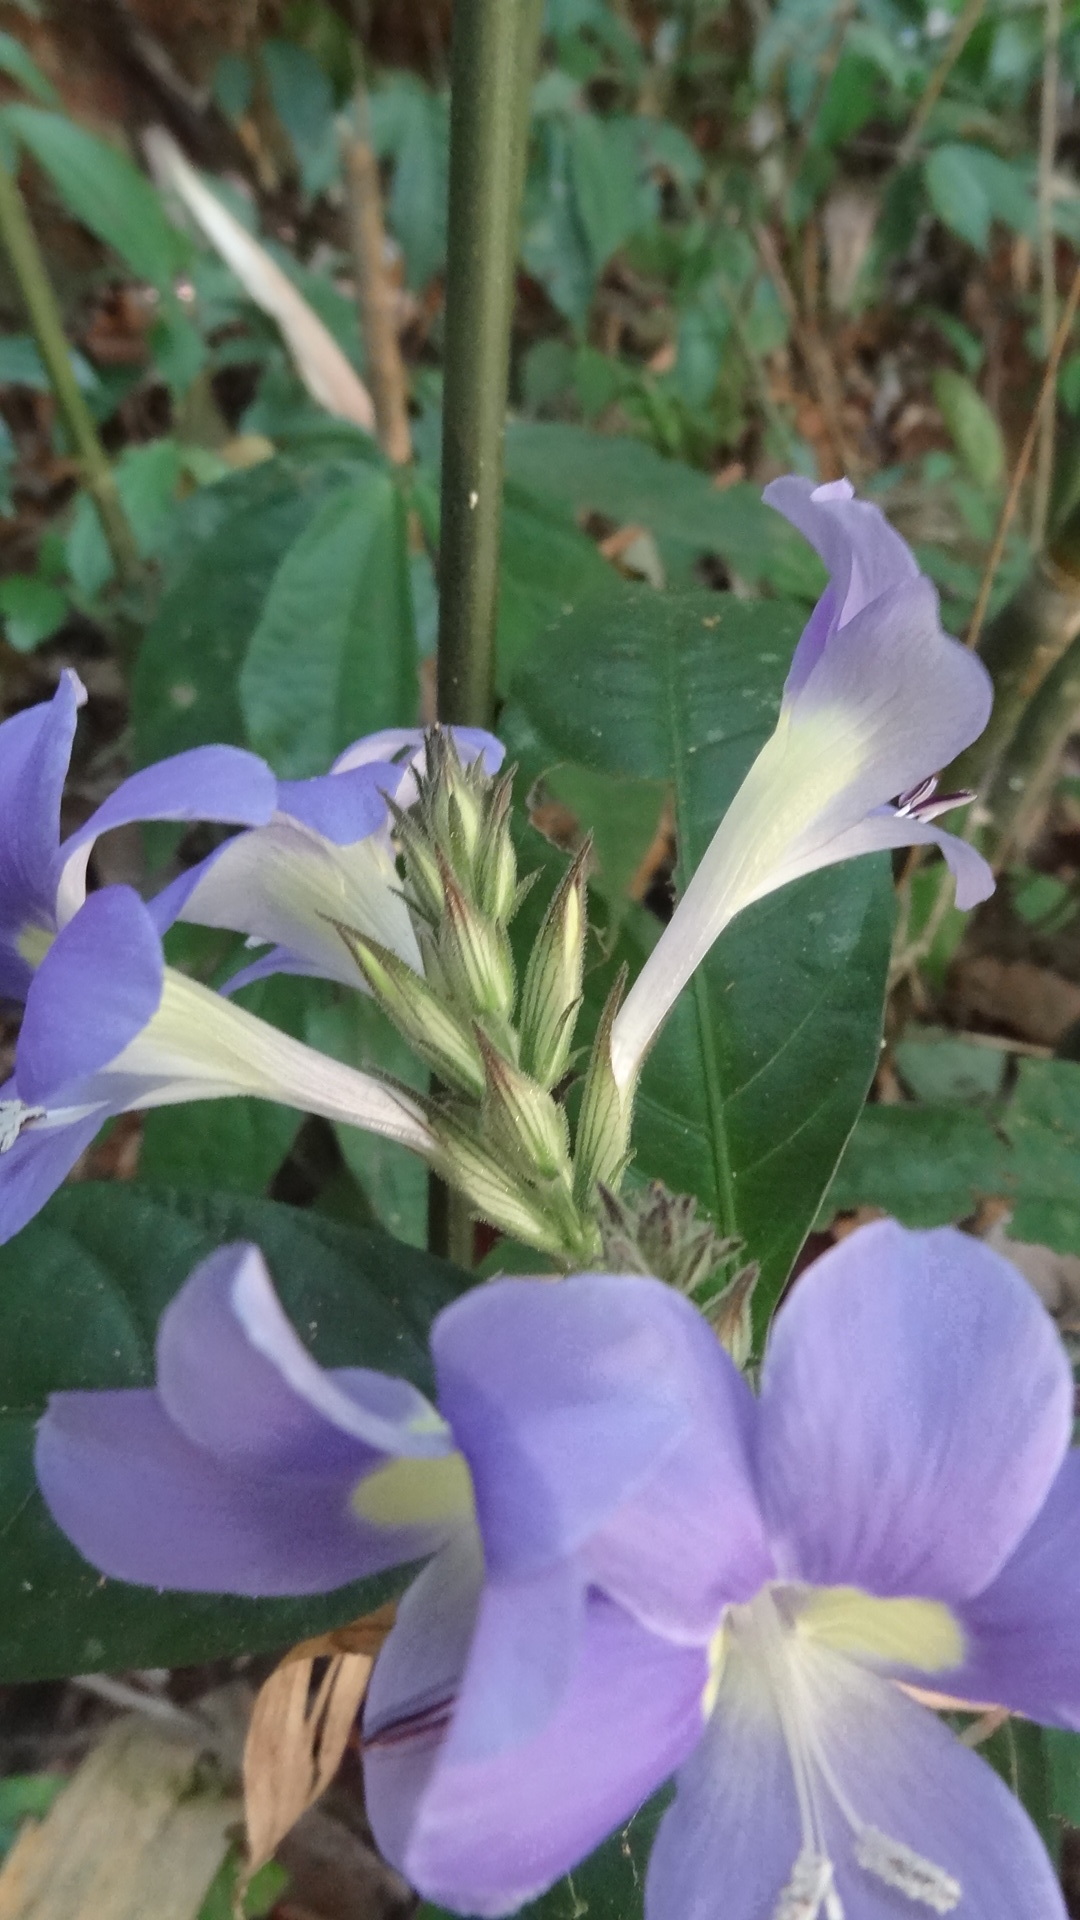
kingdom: Plantae
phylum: Tracheophyta
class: Magnoliopsida
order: Lamiales
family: Acanthaceae
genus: Barleria
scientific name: Barleria courtallica
